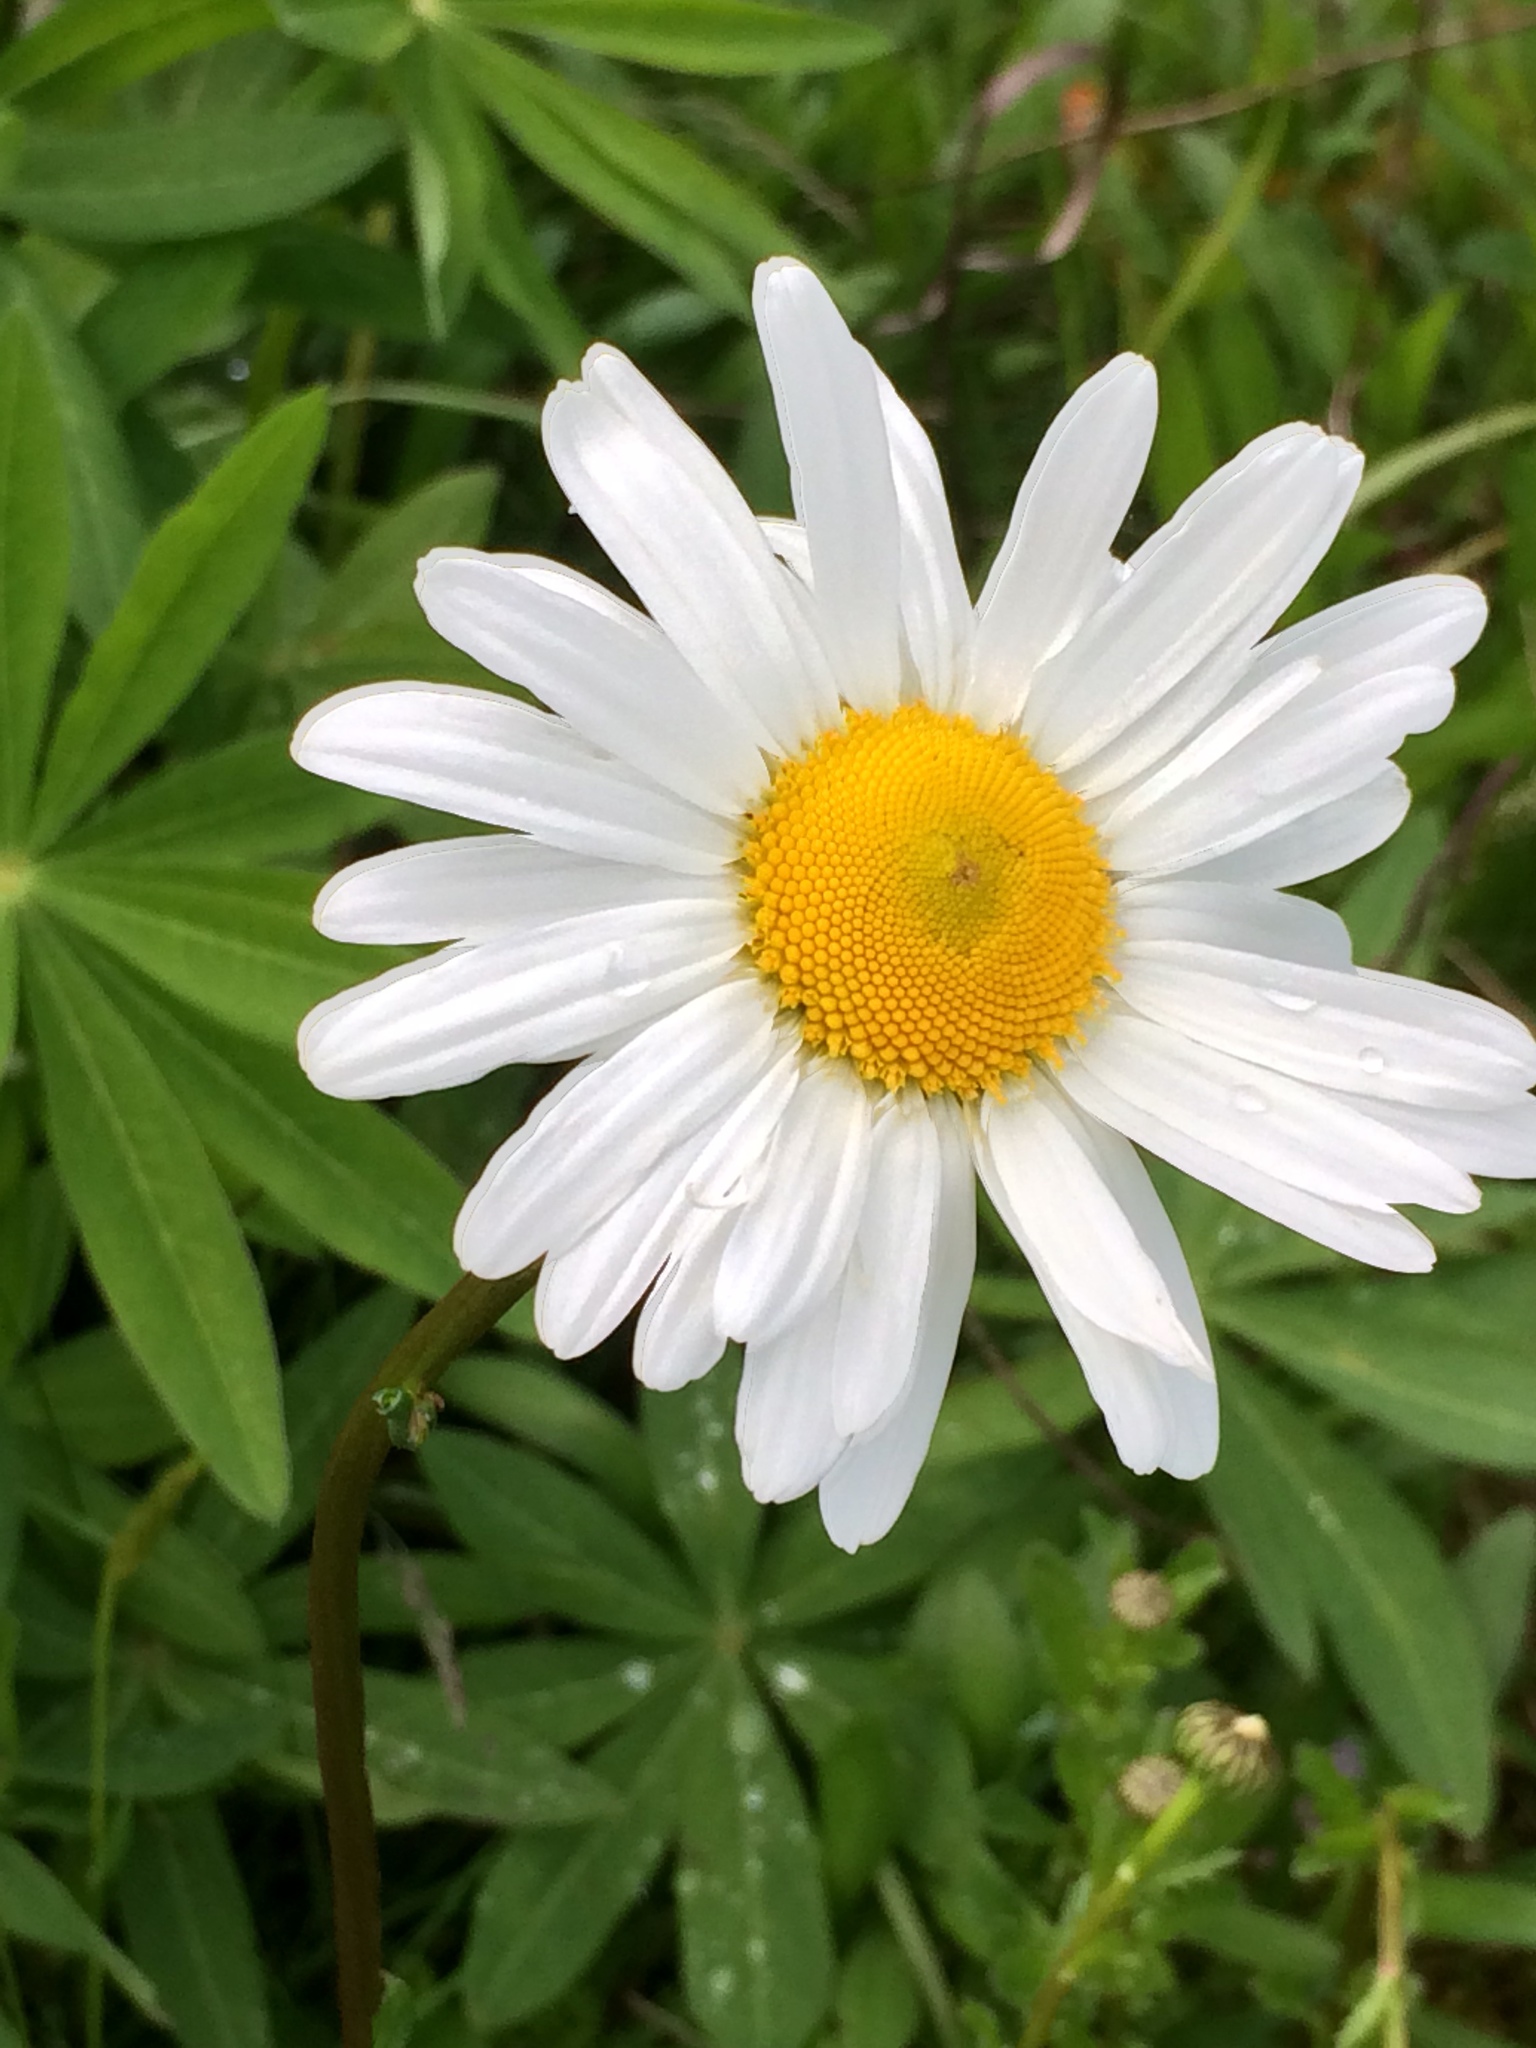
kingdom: Plantae
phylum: Tracheophyta
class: Magnoliopsida
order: Asterales
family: Asteraceae
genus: Leucanthemum
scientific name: Leucanthemum vulgare
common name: Oxeye daisy
